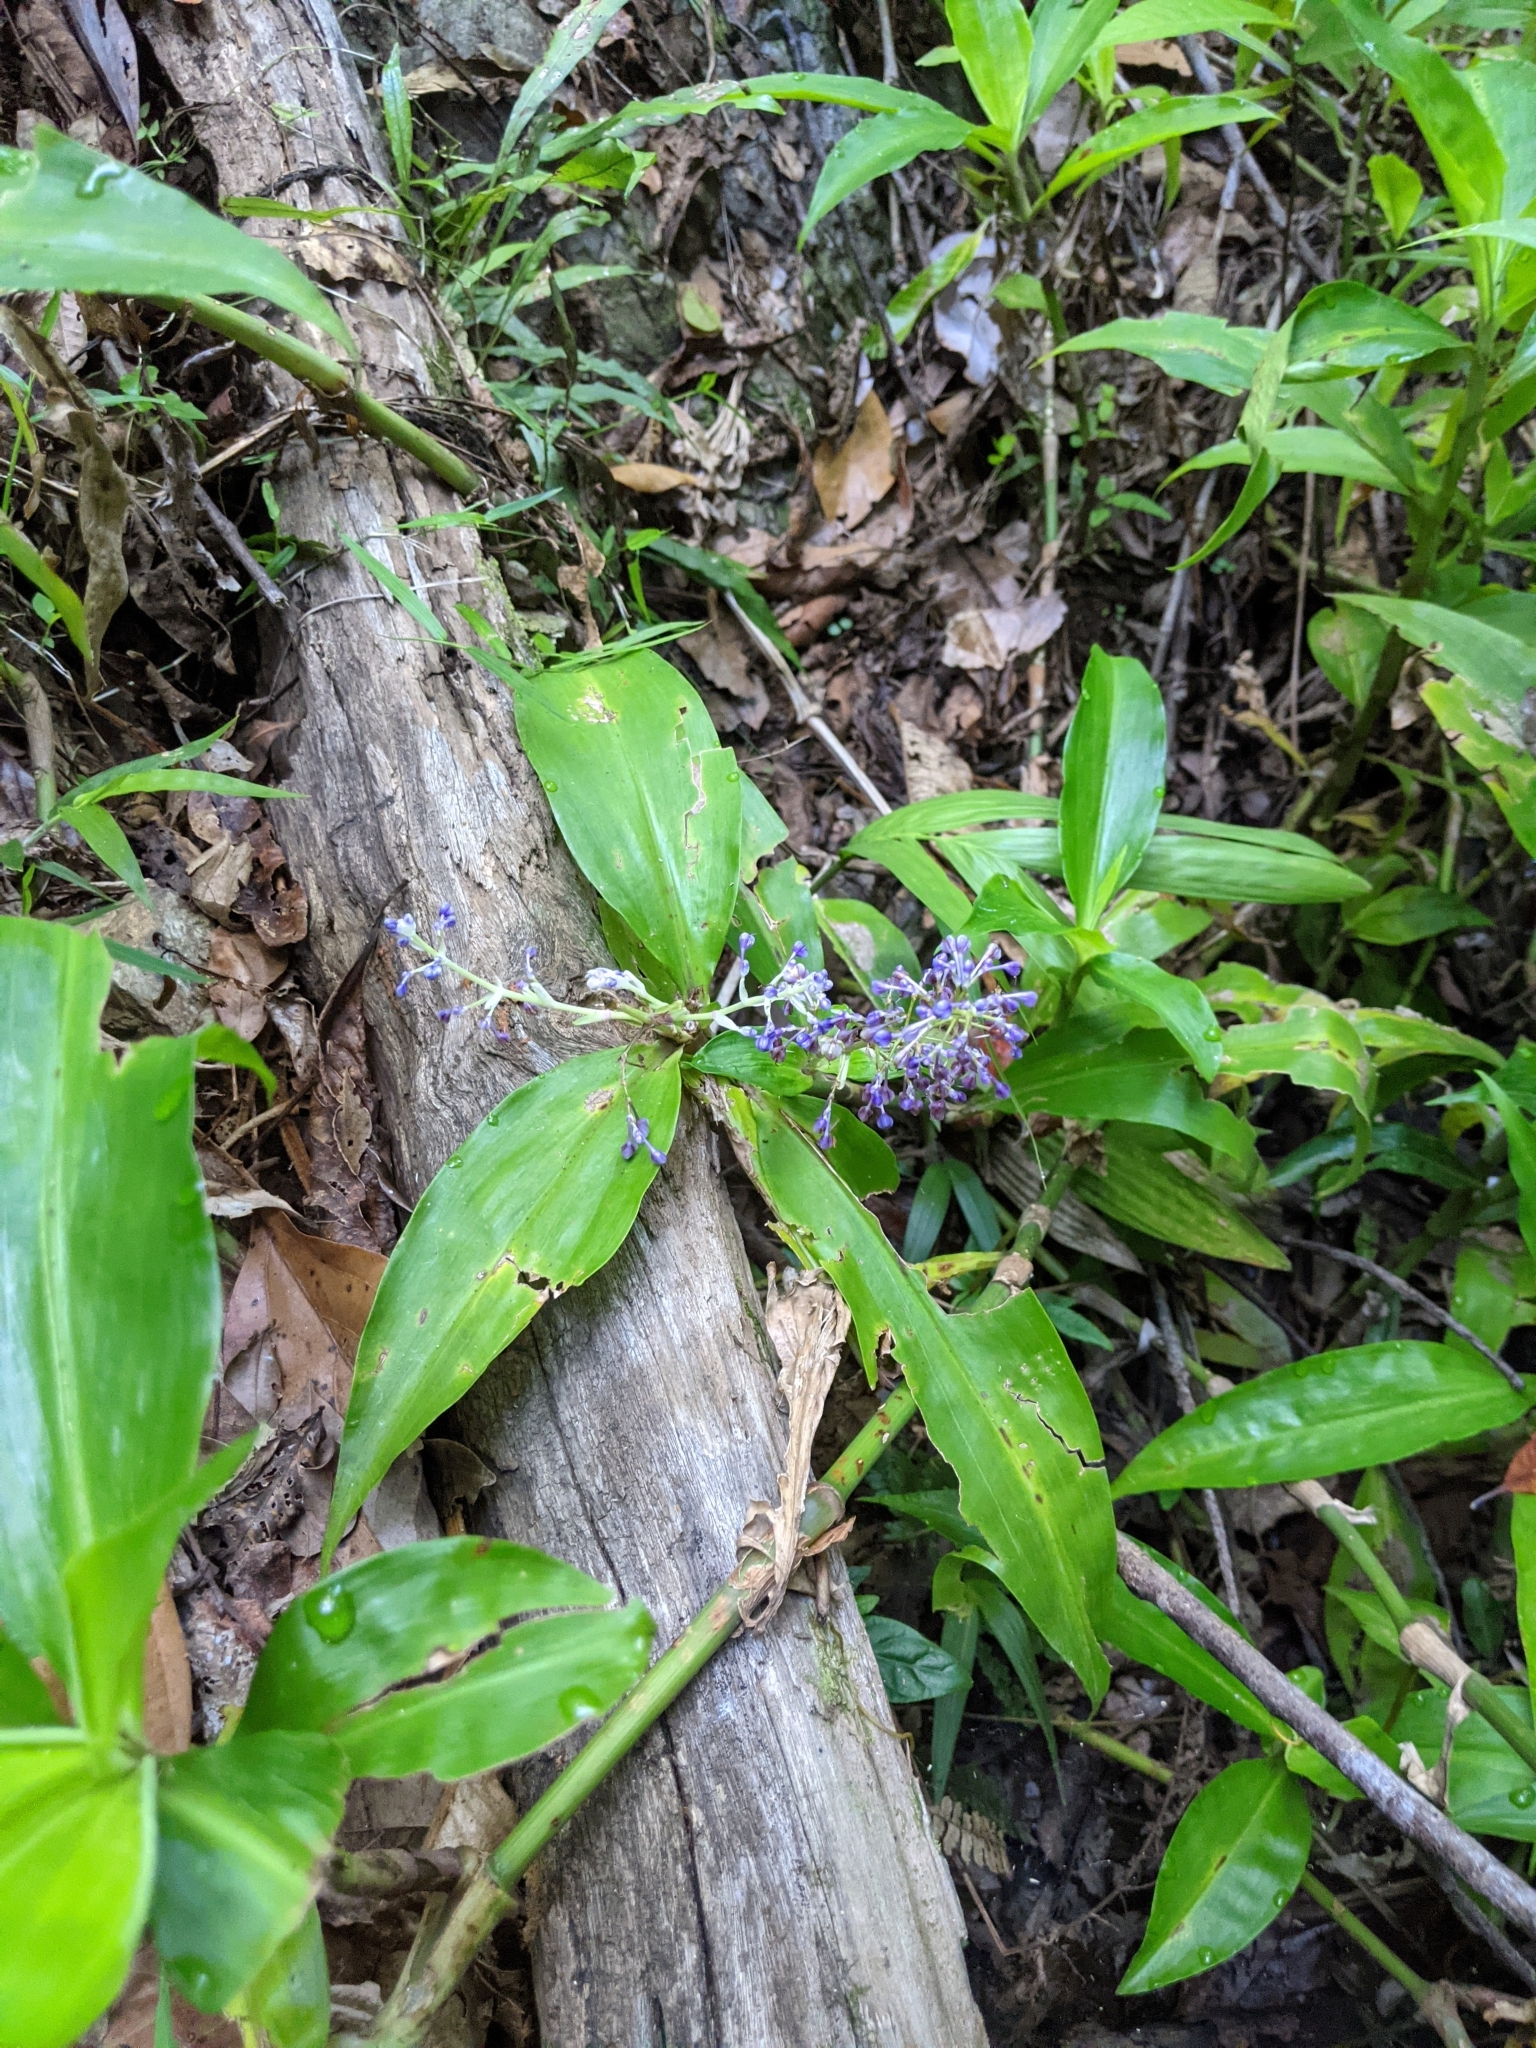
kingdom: Plantae
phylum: Tracheophyta
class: Liliopsida
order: Commelinales
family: Commelinaceae
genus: Pollia
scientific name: Pollia macrophylla
